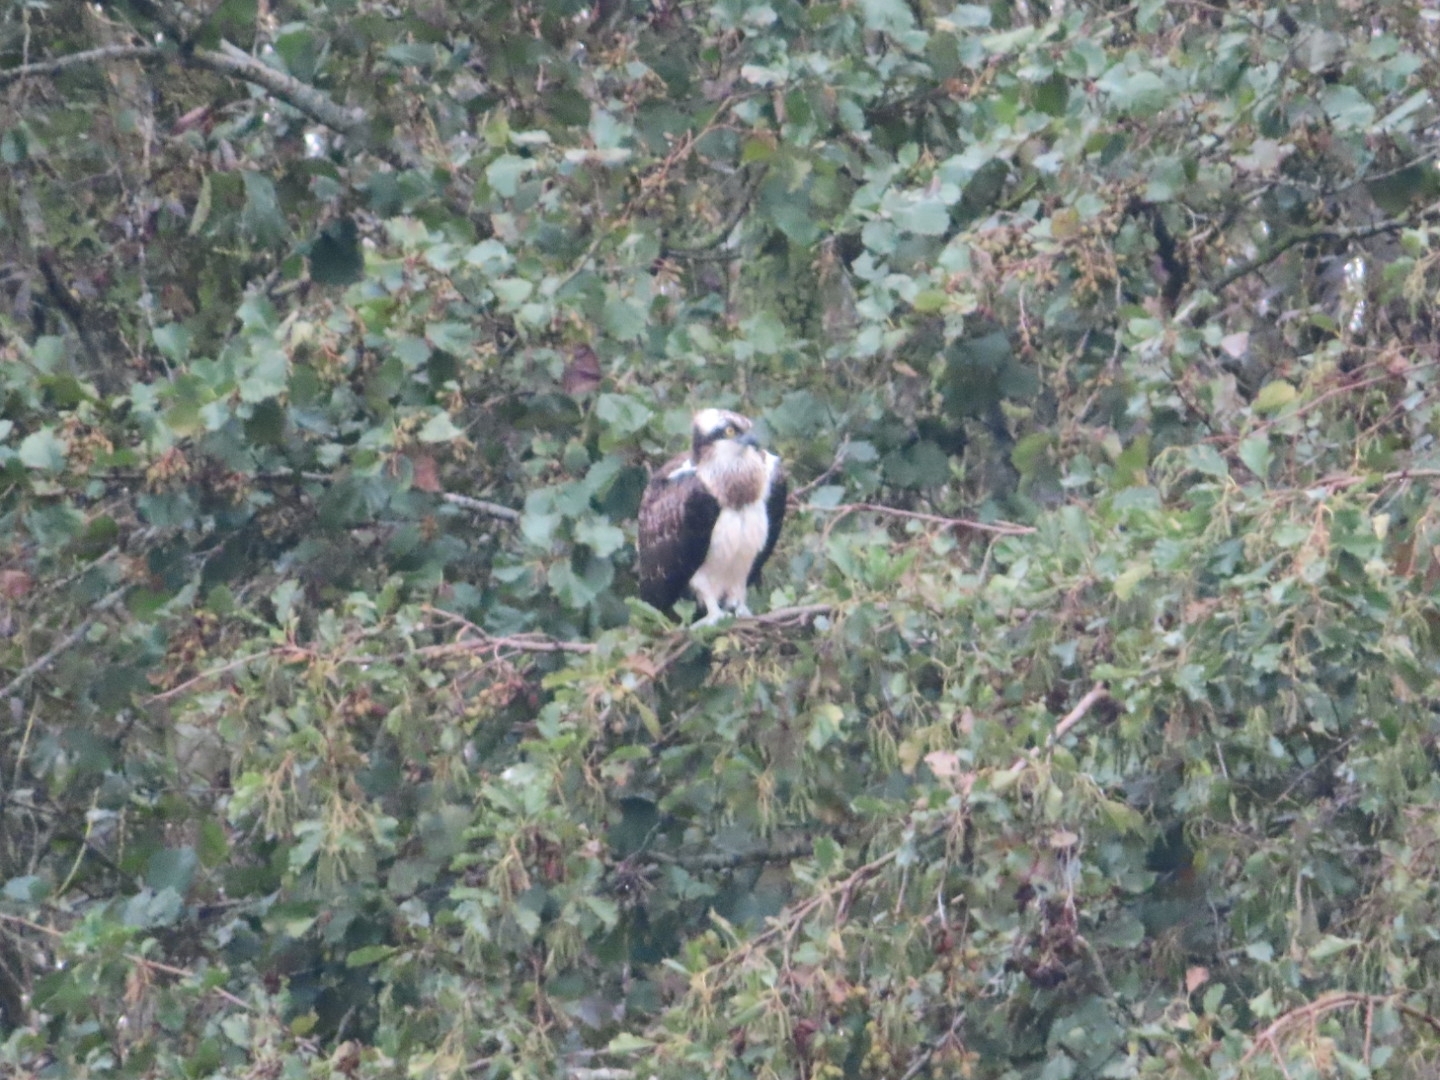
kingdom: Animalia
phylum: Chordata
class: Aves
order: Accipitriformes
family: Pandionidae
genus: Pandion
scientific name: Pandion haliaetus
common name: Osprey
